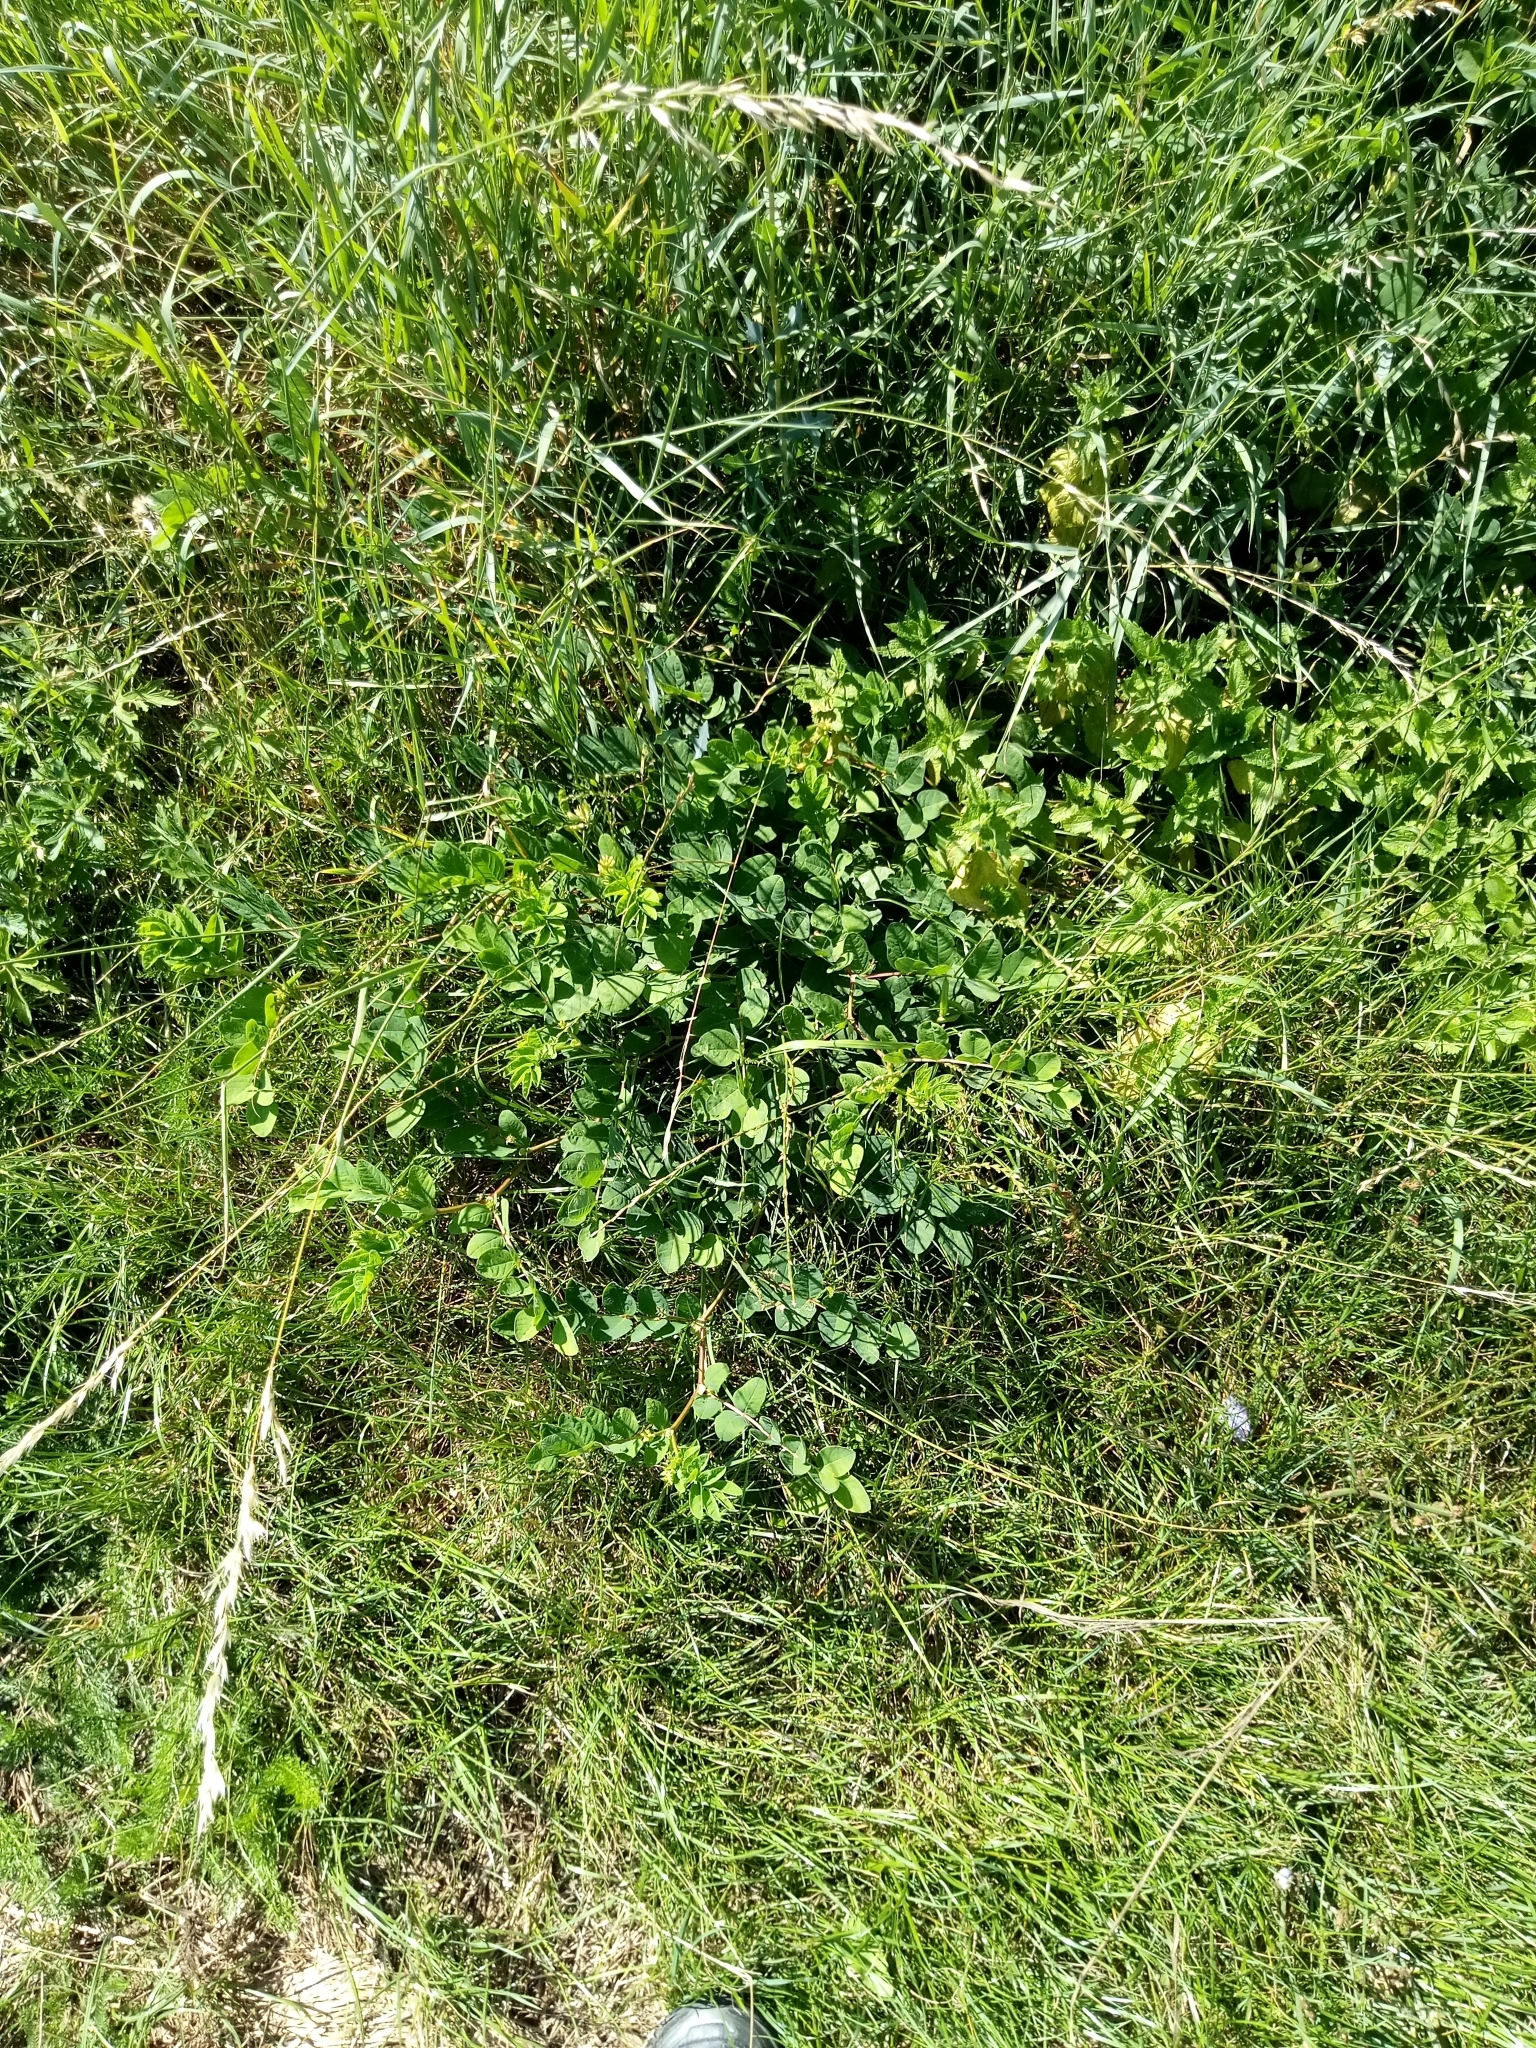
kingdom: Plantae
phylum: Tracheophyta
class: Magnoliopsida
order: Fabales
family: Fabaceae
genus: Astragalus
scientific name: Astragalus glycyphyllos
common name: Wild liquorice
